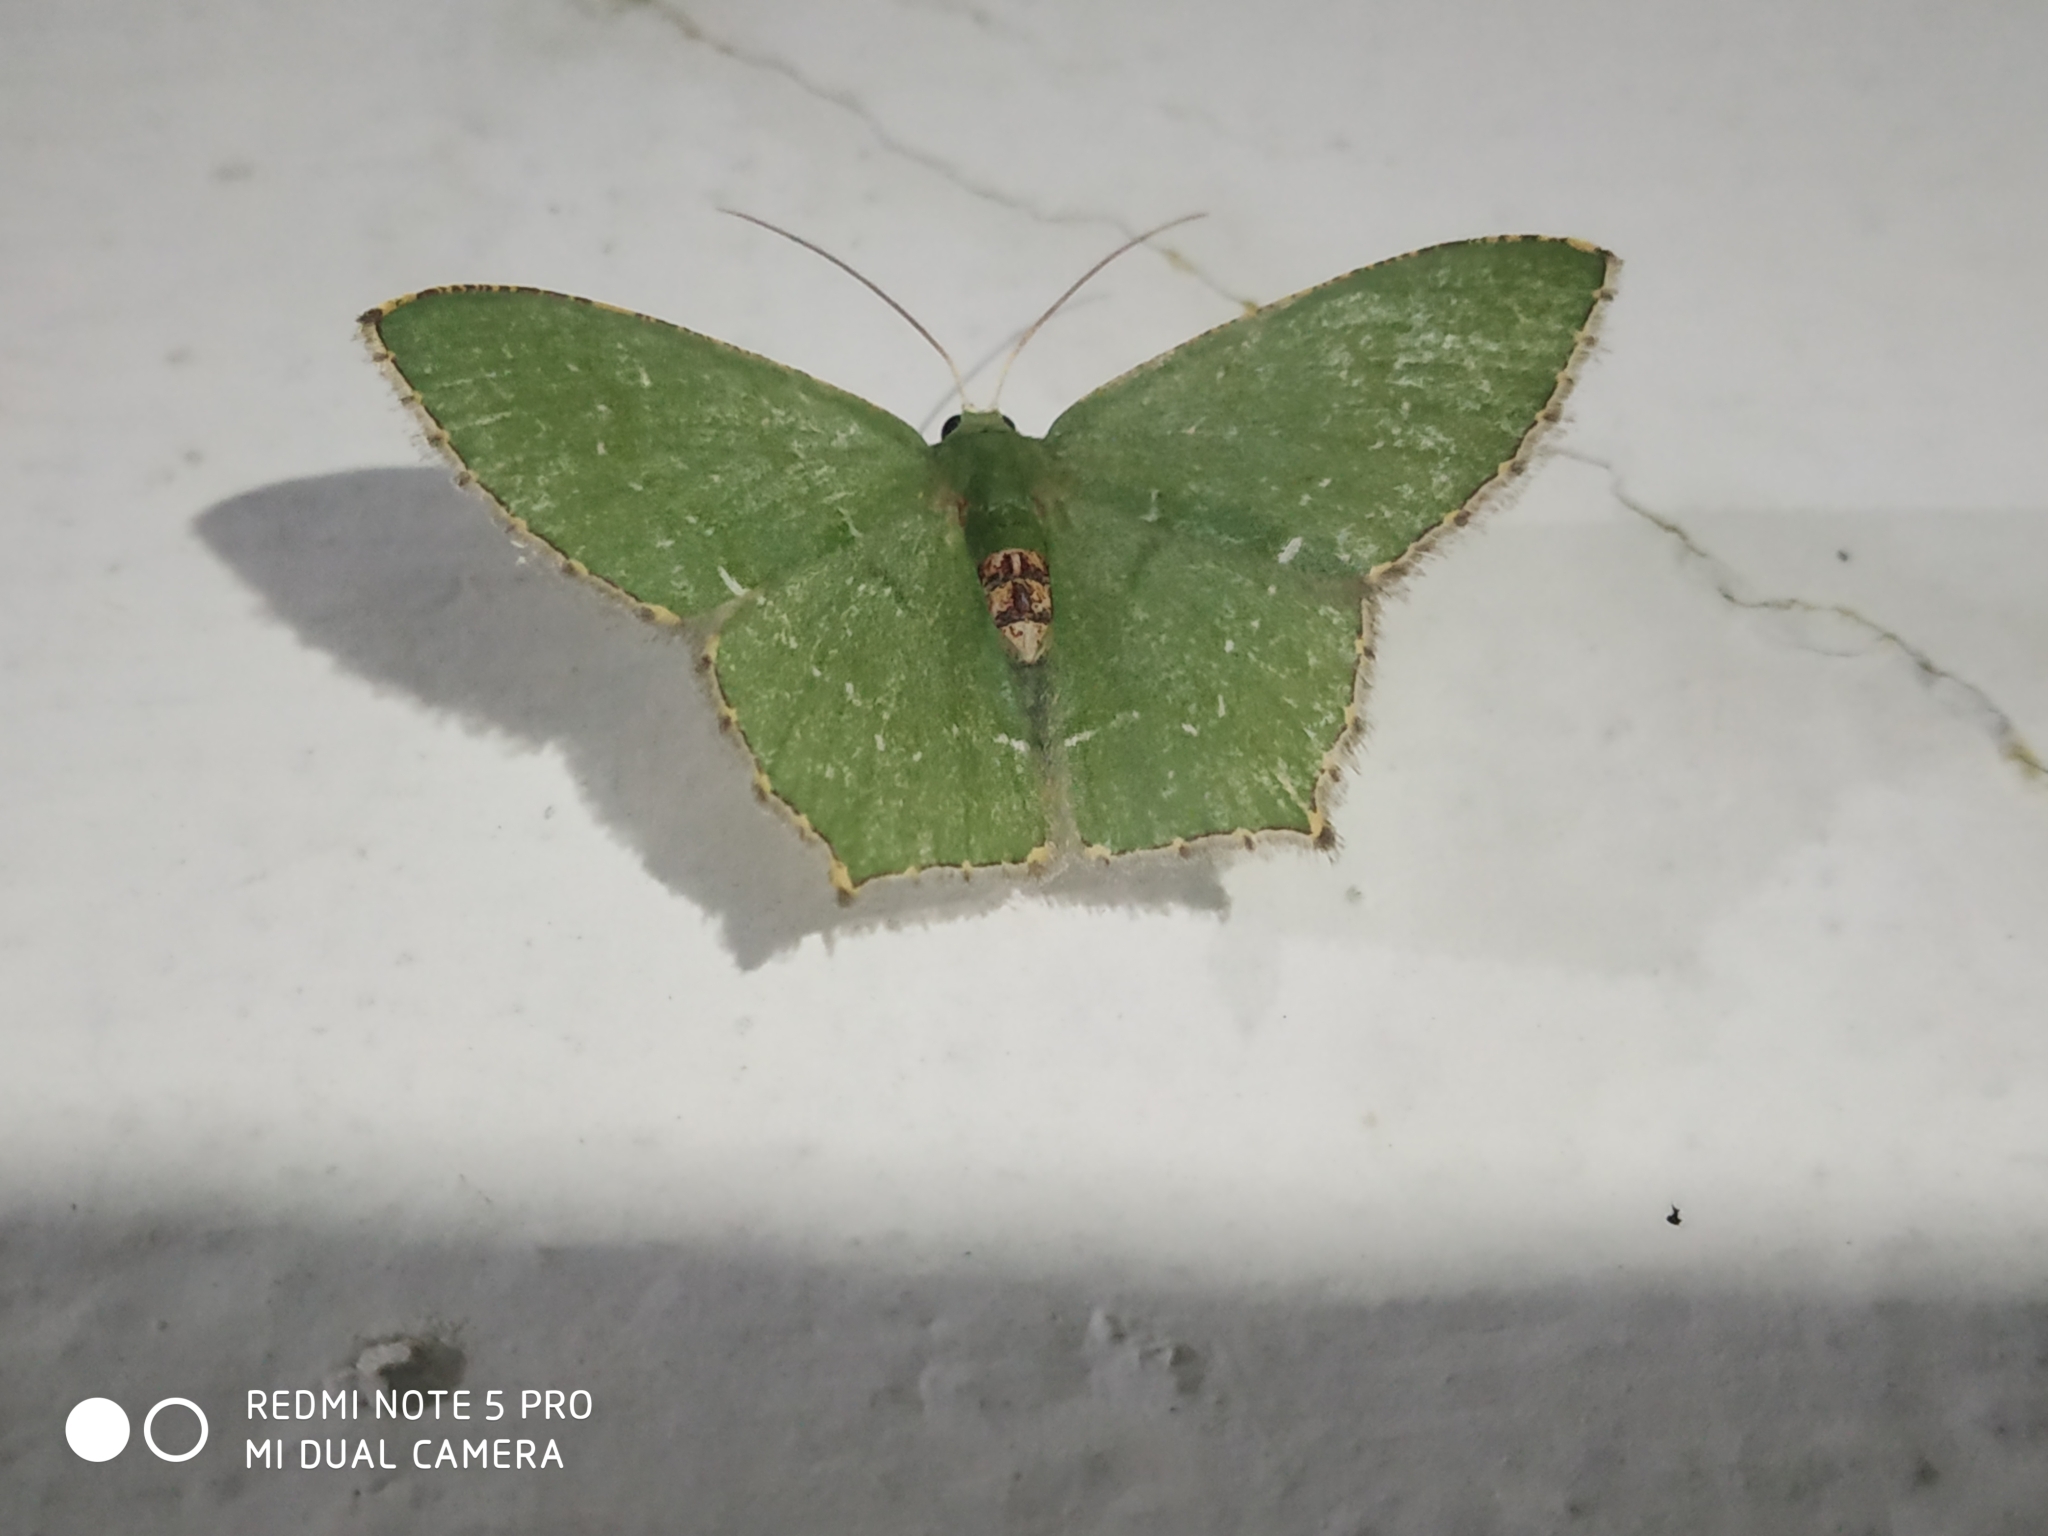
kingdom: Animalia
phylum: Arthropoda
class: Insecta
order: Lepidoptera
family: Geometridae
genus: Hemithea
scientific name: Hemithea tritonaria
